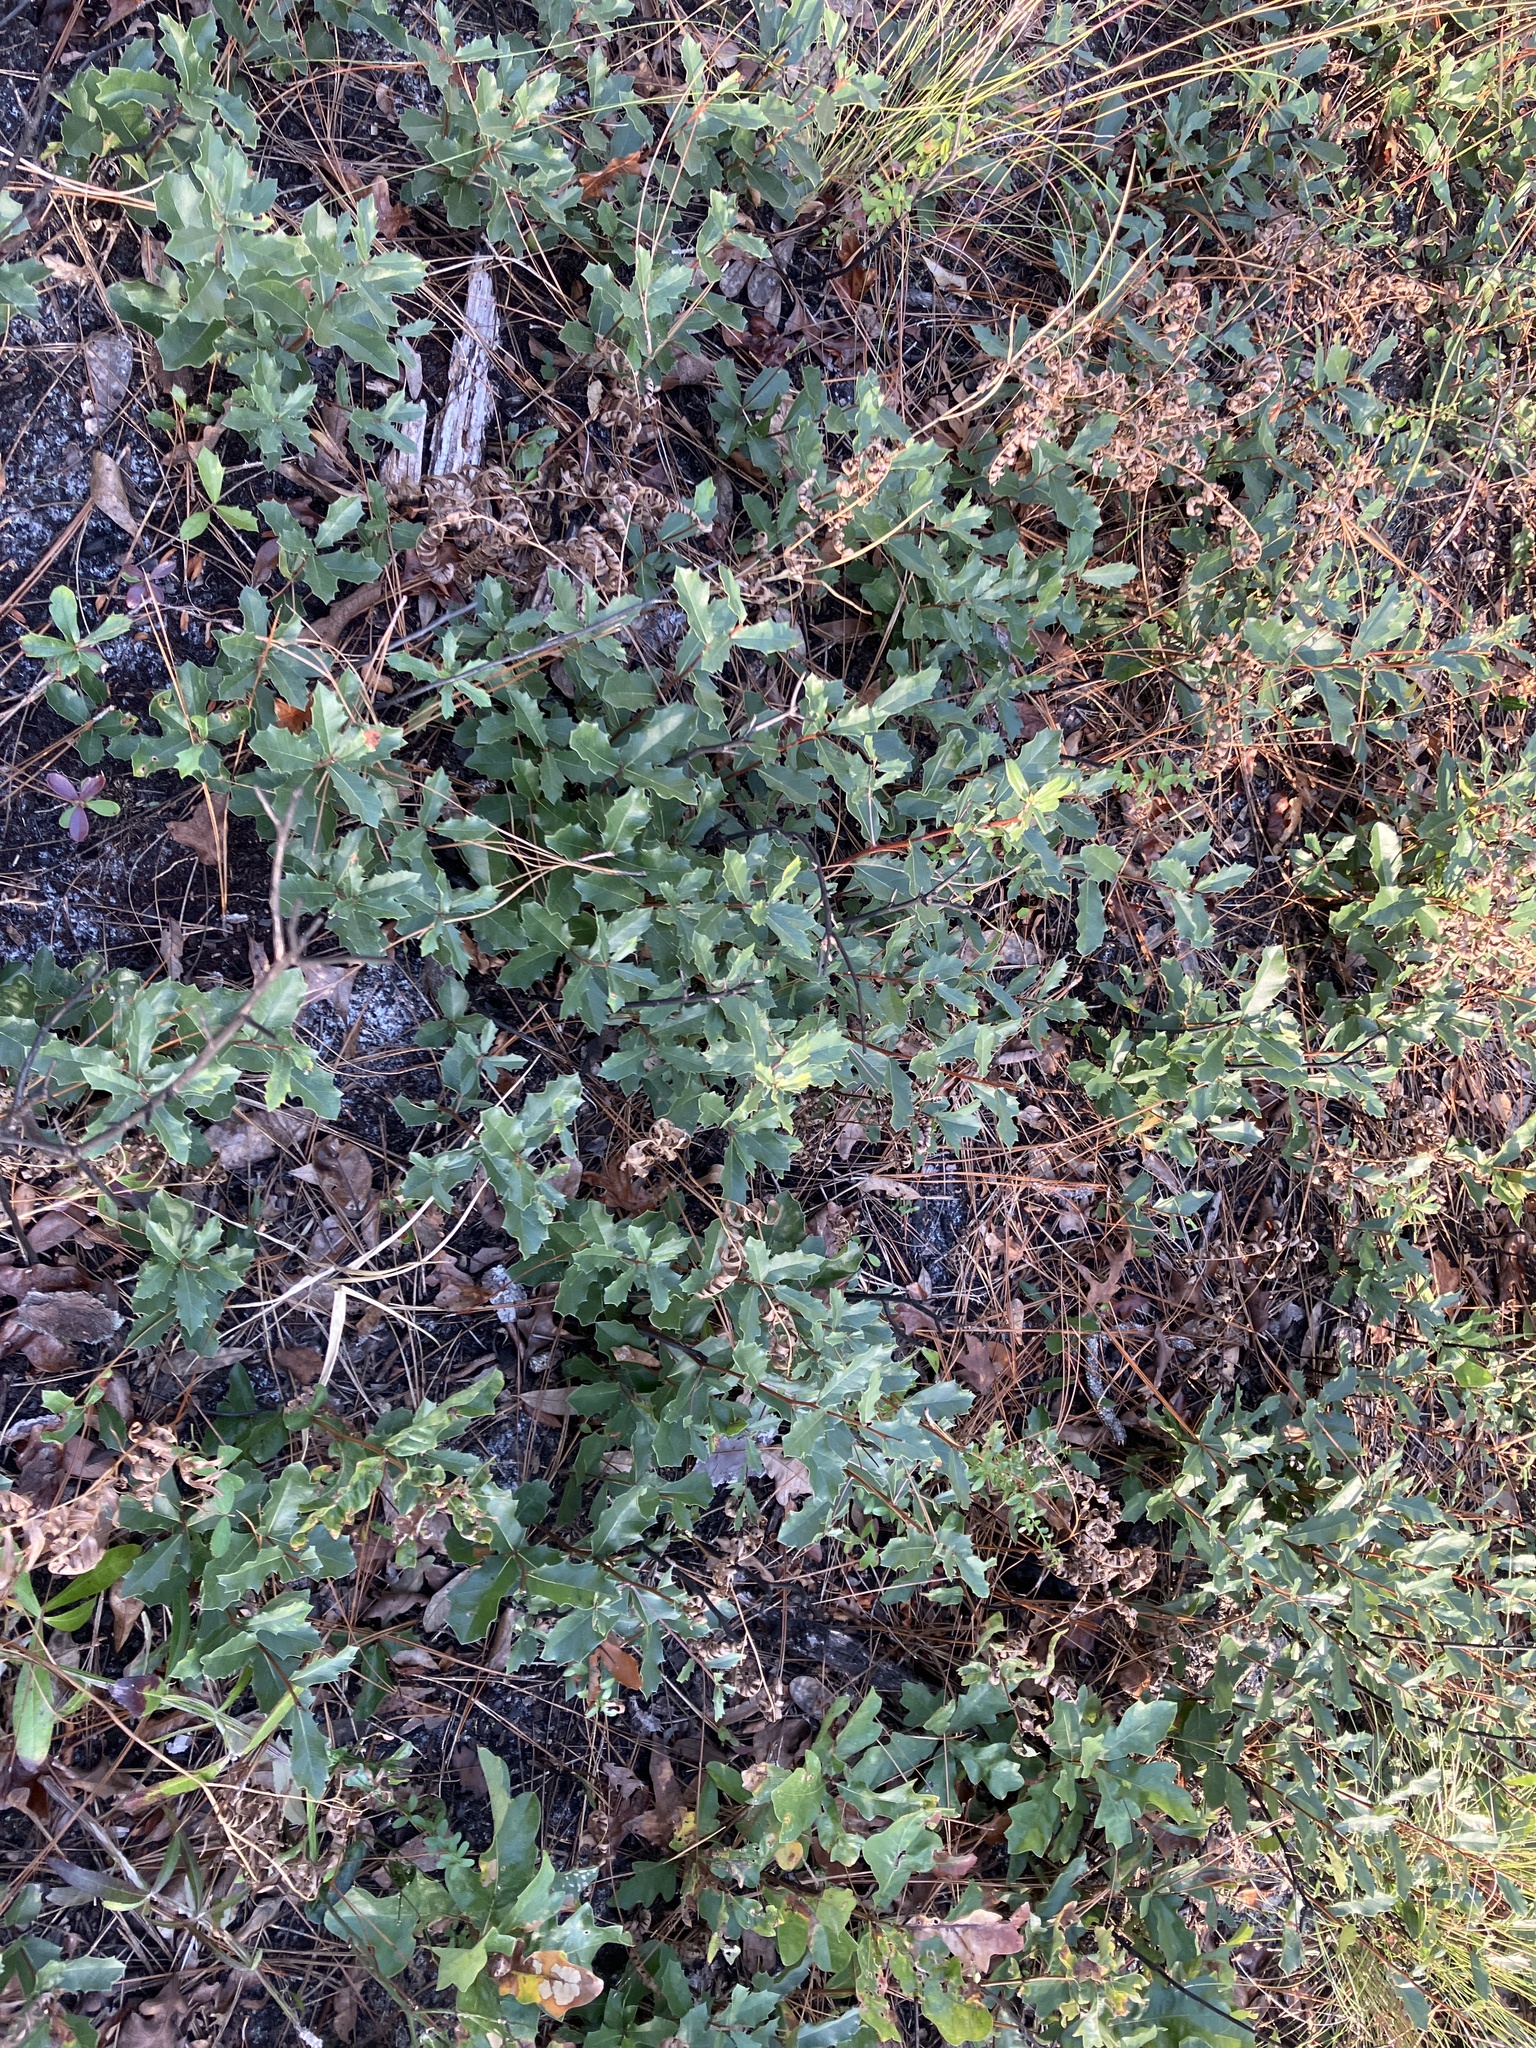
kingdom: Plantae
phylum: Tracheophyta
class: Magnoliopsida
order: Fagales
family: Fagaceae
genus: Quercus
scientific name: Quercus minima
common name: Dwarf live oak
